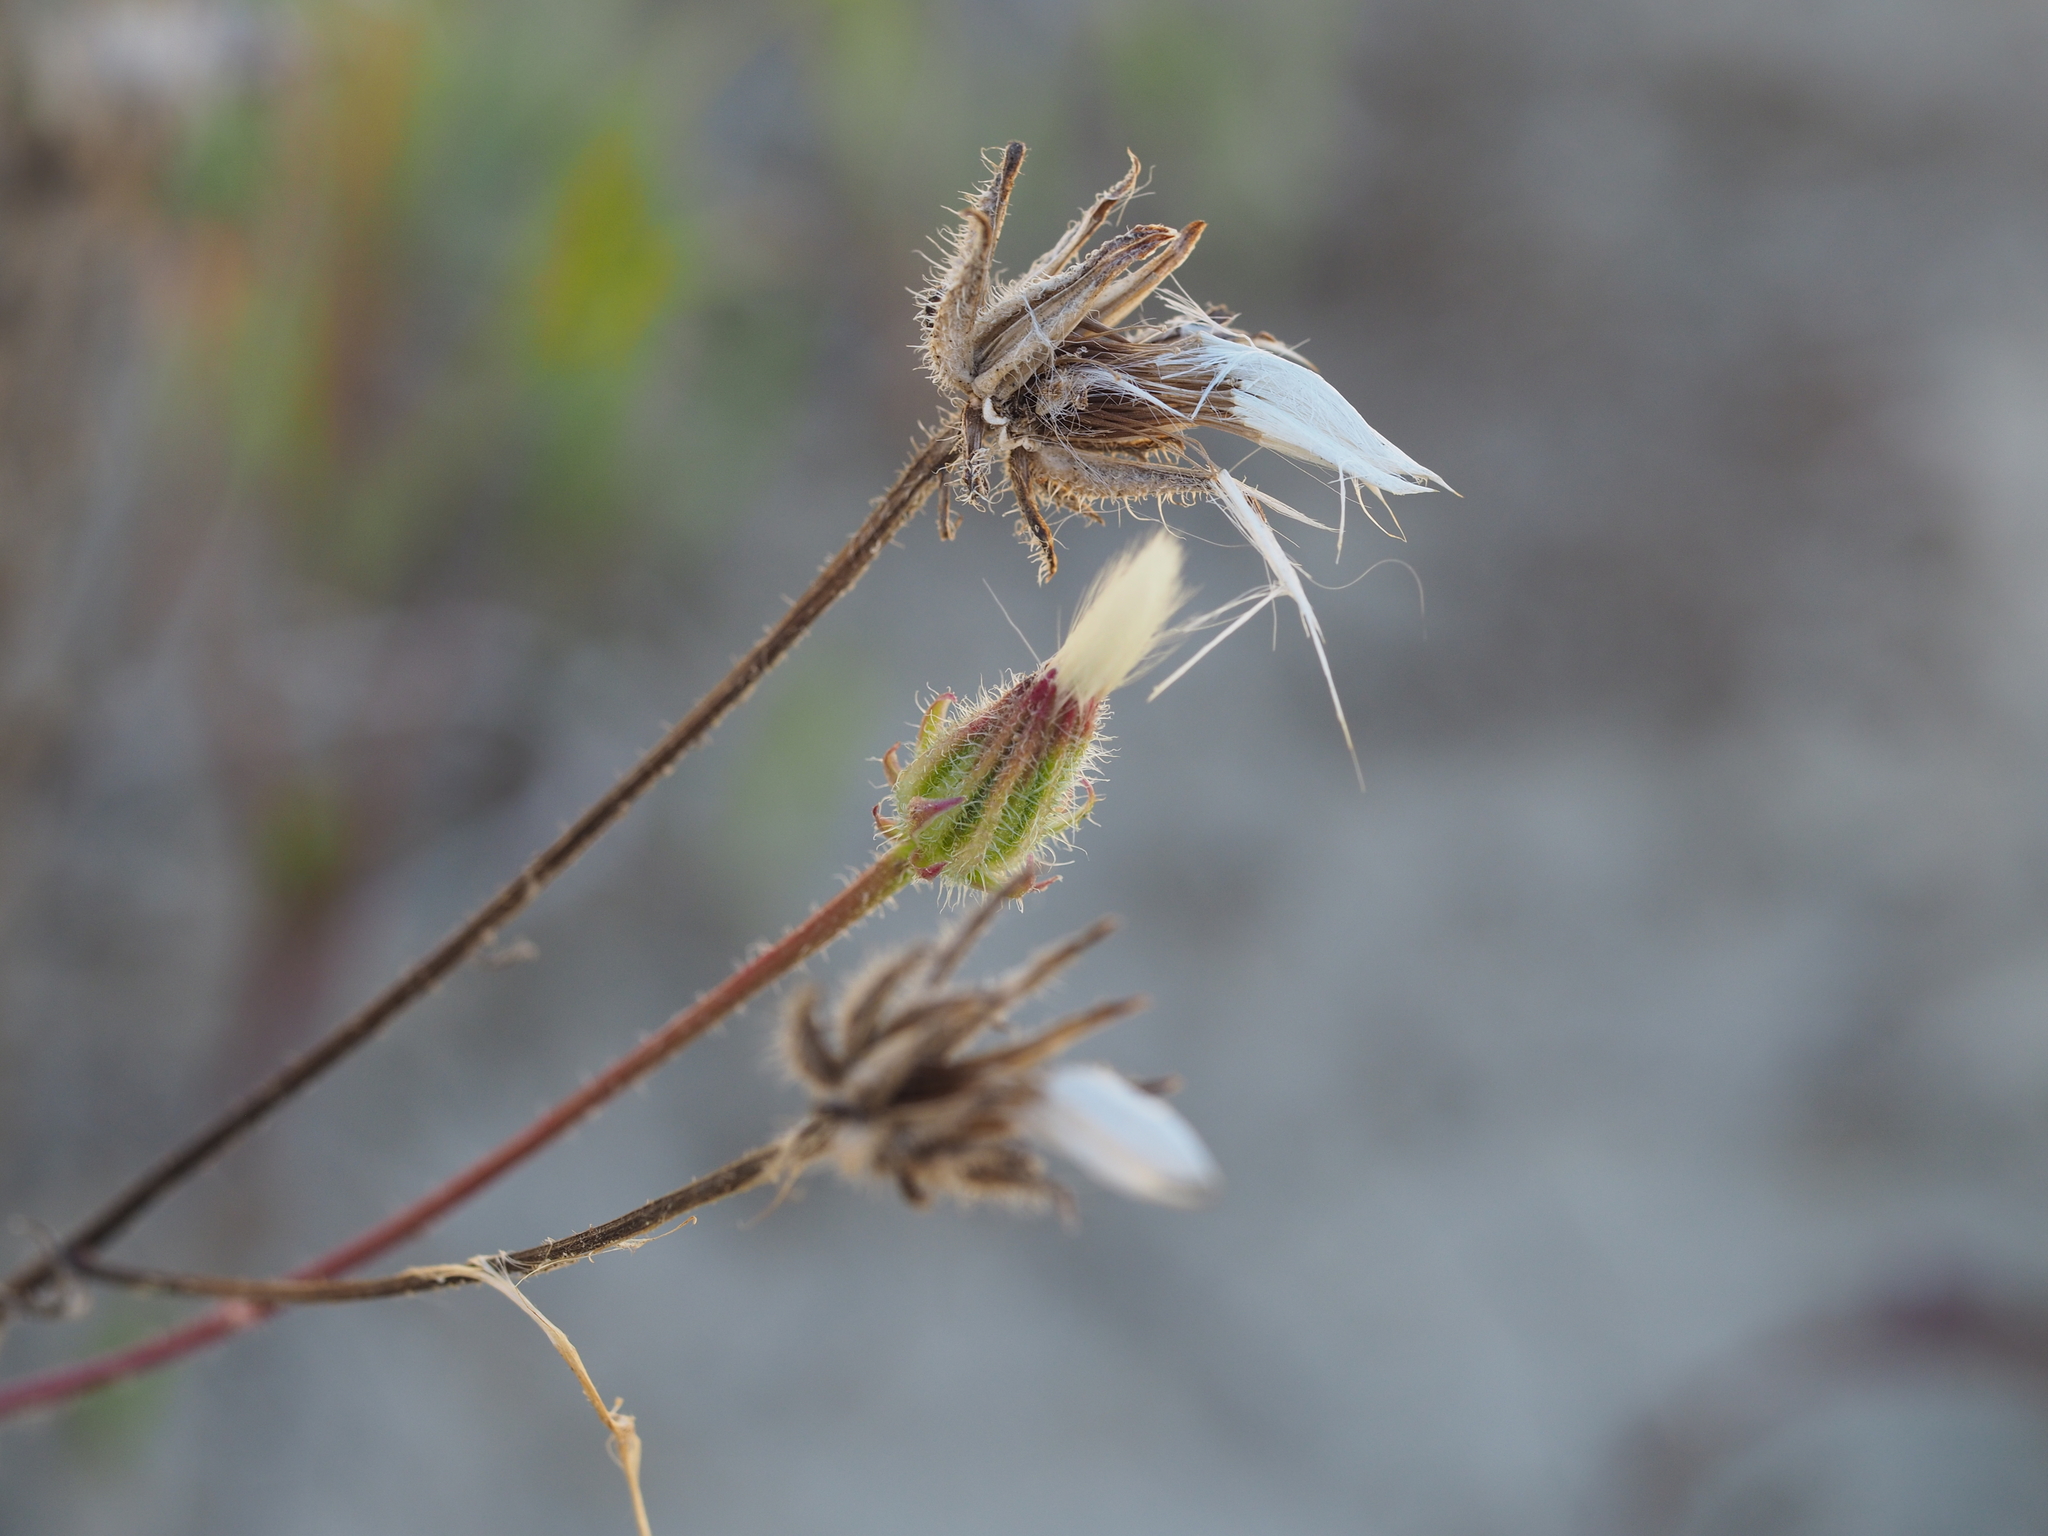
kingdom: Plantae
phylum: Tracheophyta
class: Magnoliopsida
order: Asterales
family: Asteraceae
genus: Crepis
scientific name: Crepis setosa
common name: Bristly hawk's-beard
